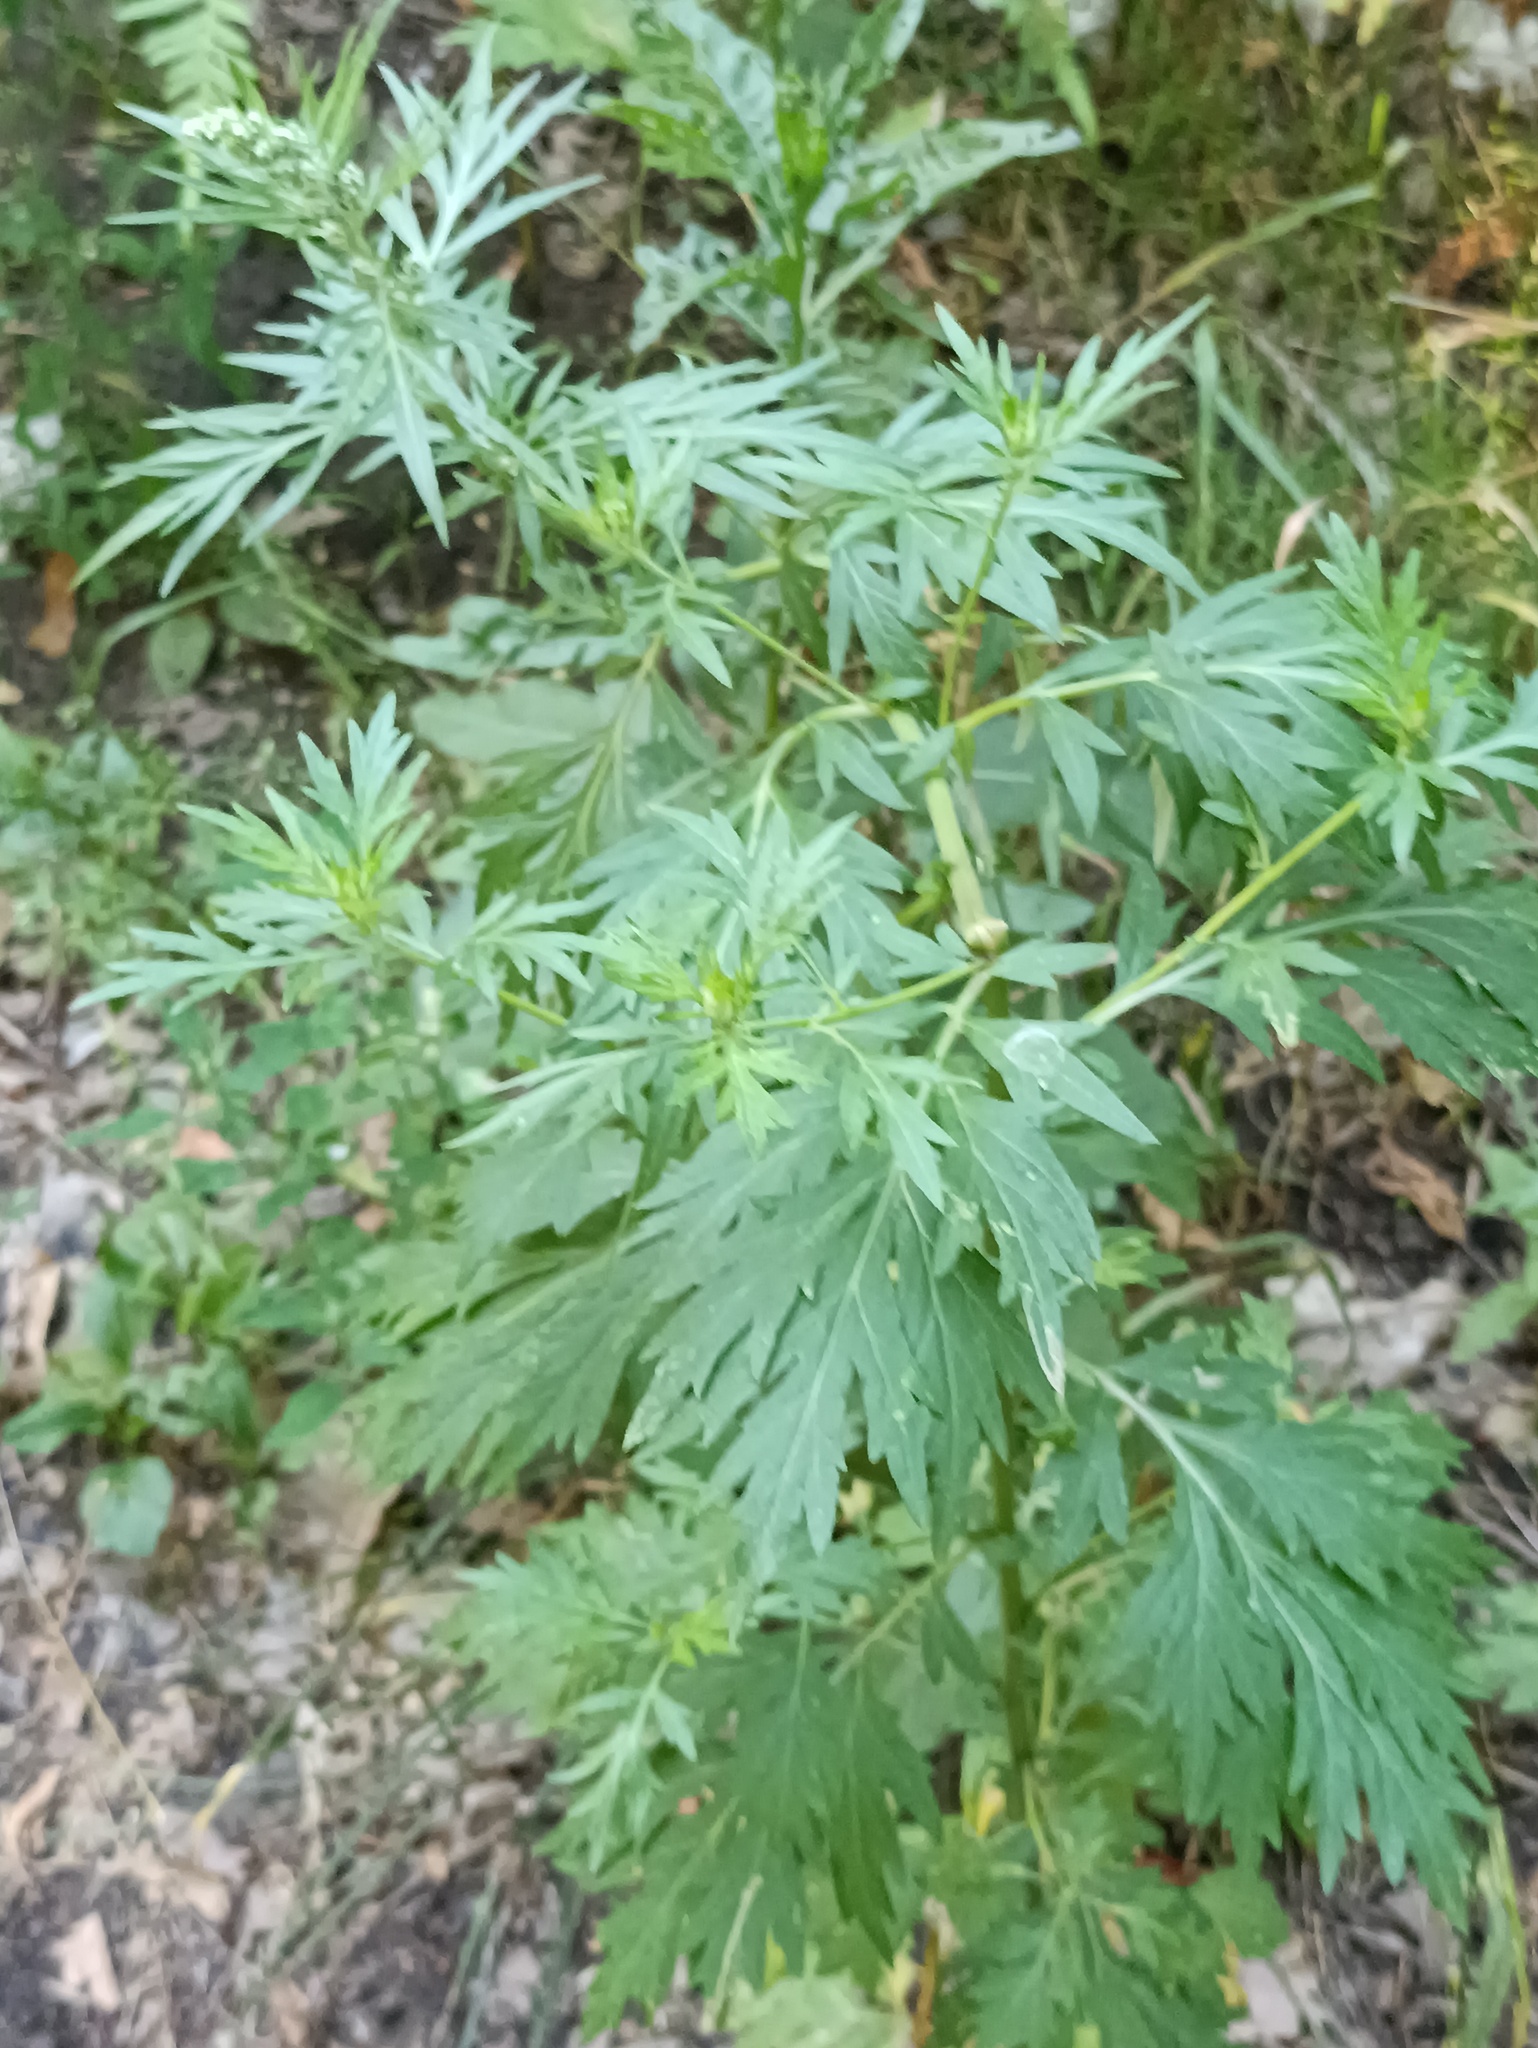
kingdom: Plantae
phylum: Tracheophyta
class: Magnoliopsida
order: Asterales
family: Asteraceae
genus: Artemisia
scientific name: Artemisia vulgaris
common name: Mugwort
